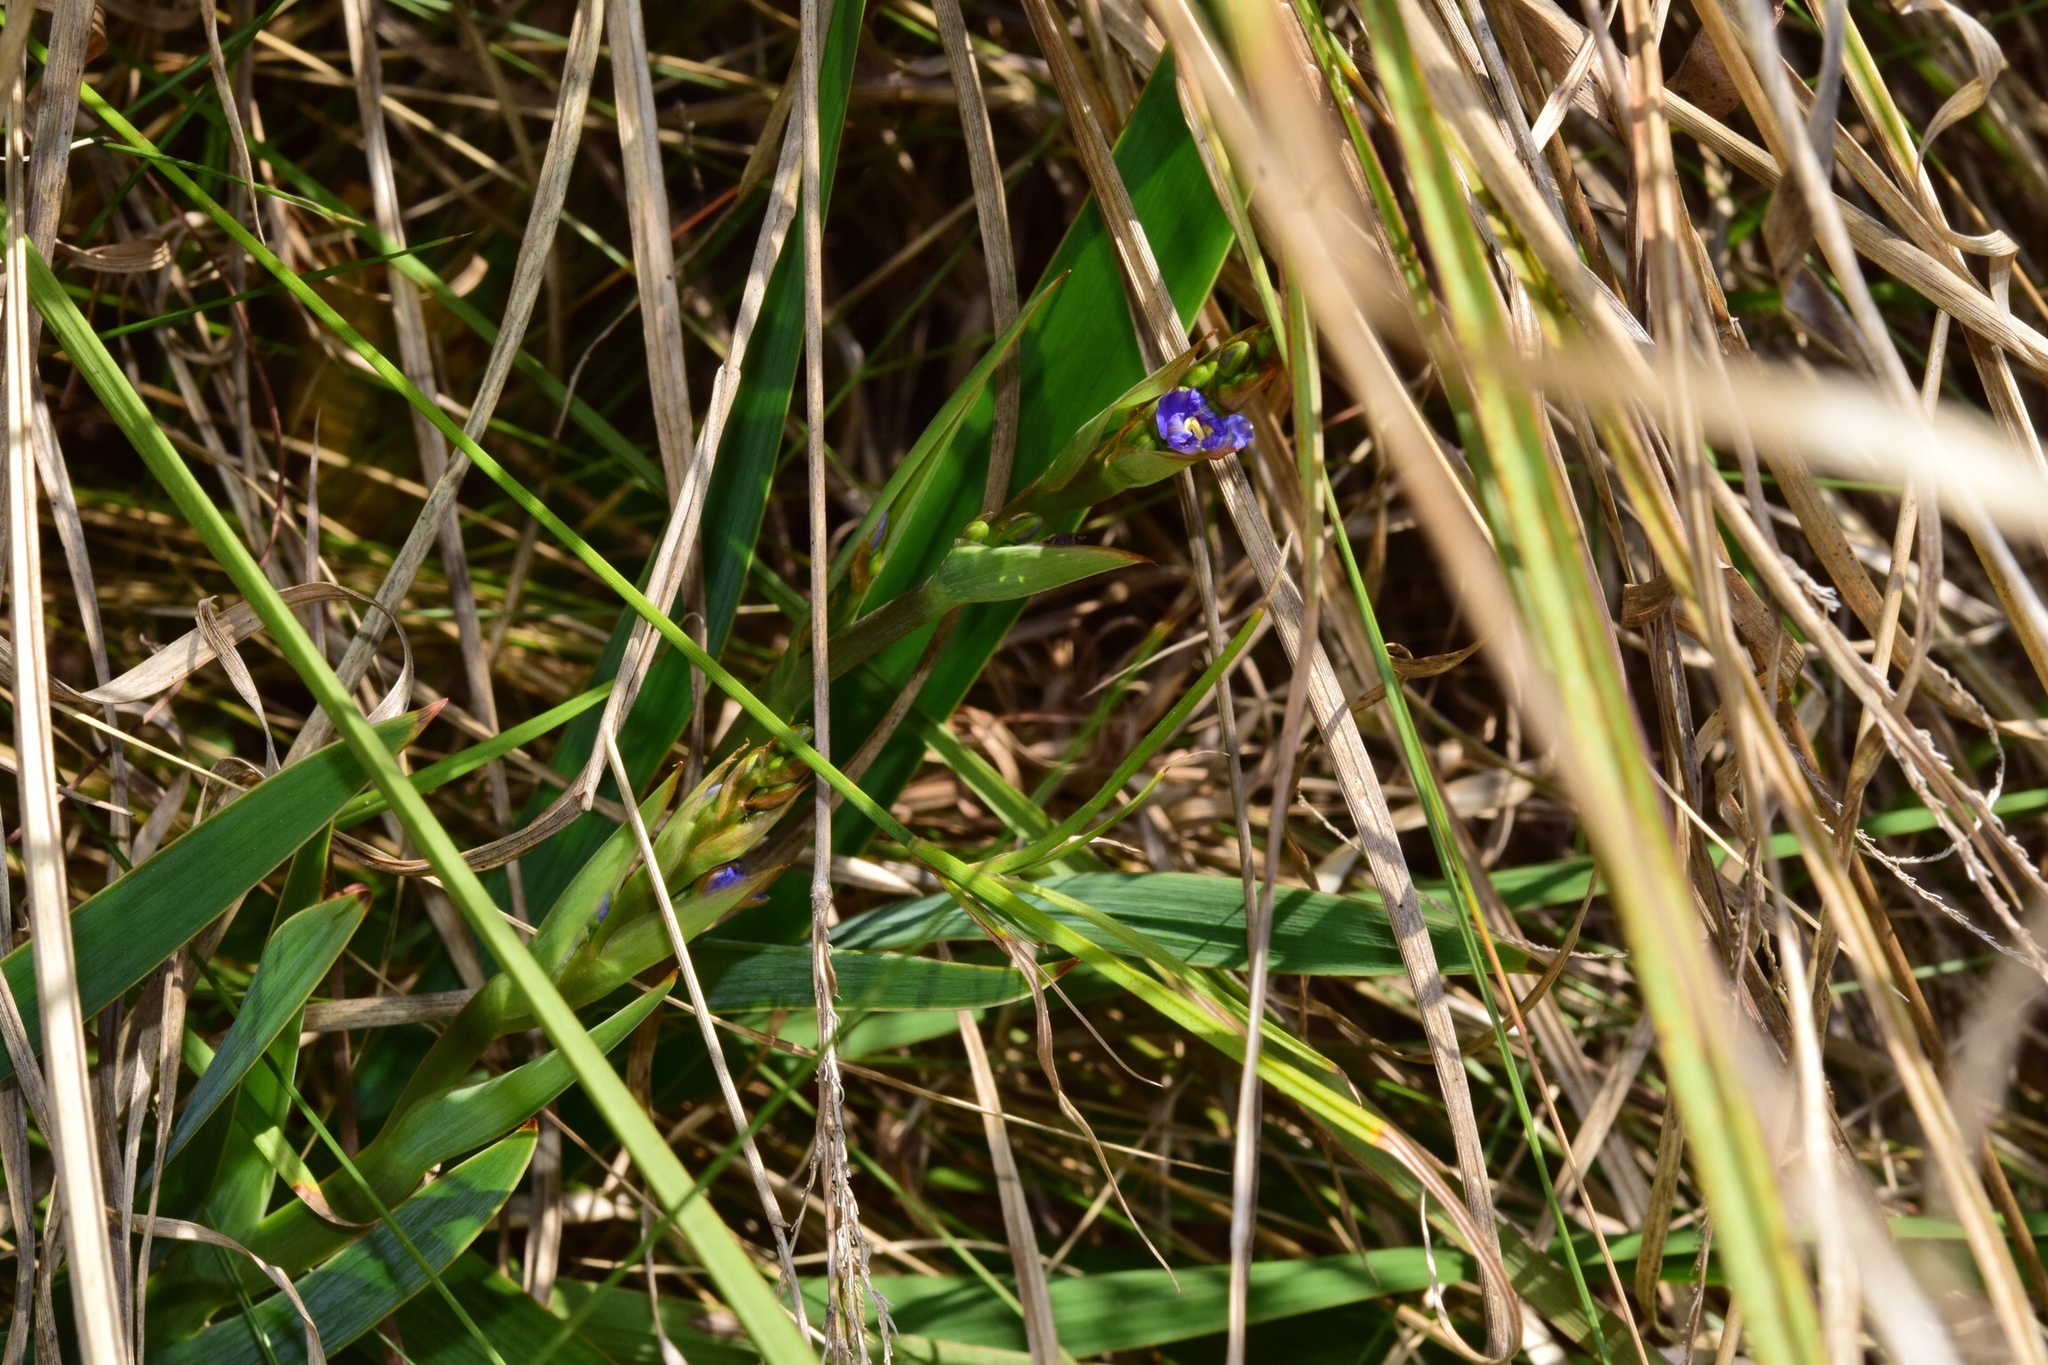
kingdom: Plantae
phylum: Tracheophyta
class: Liliopsida
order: Asparagales
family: Iridaceae
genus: Aristea
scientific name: Aristea ecklonii
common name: Blue corn-lily
